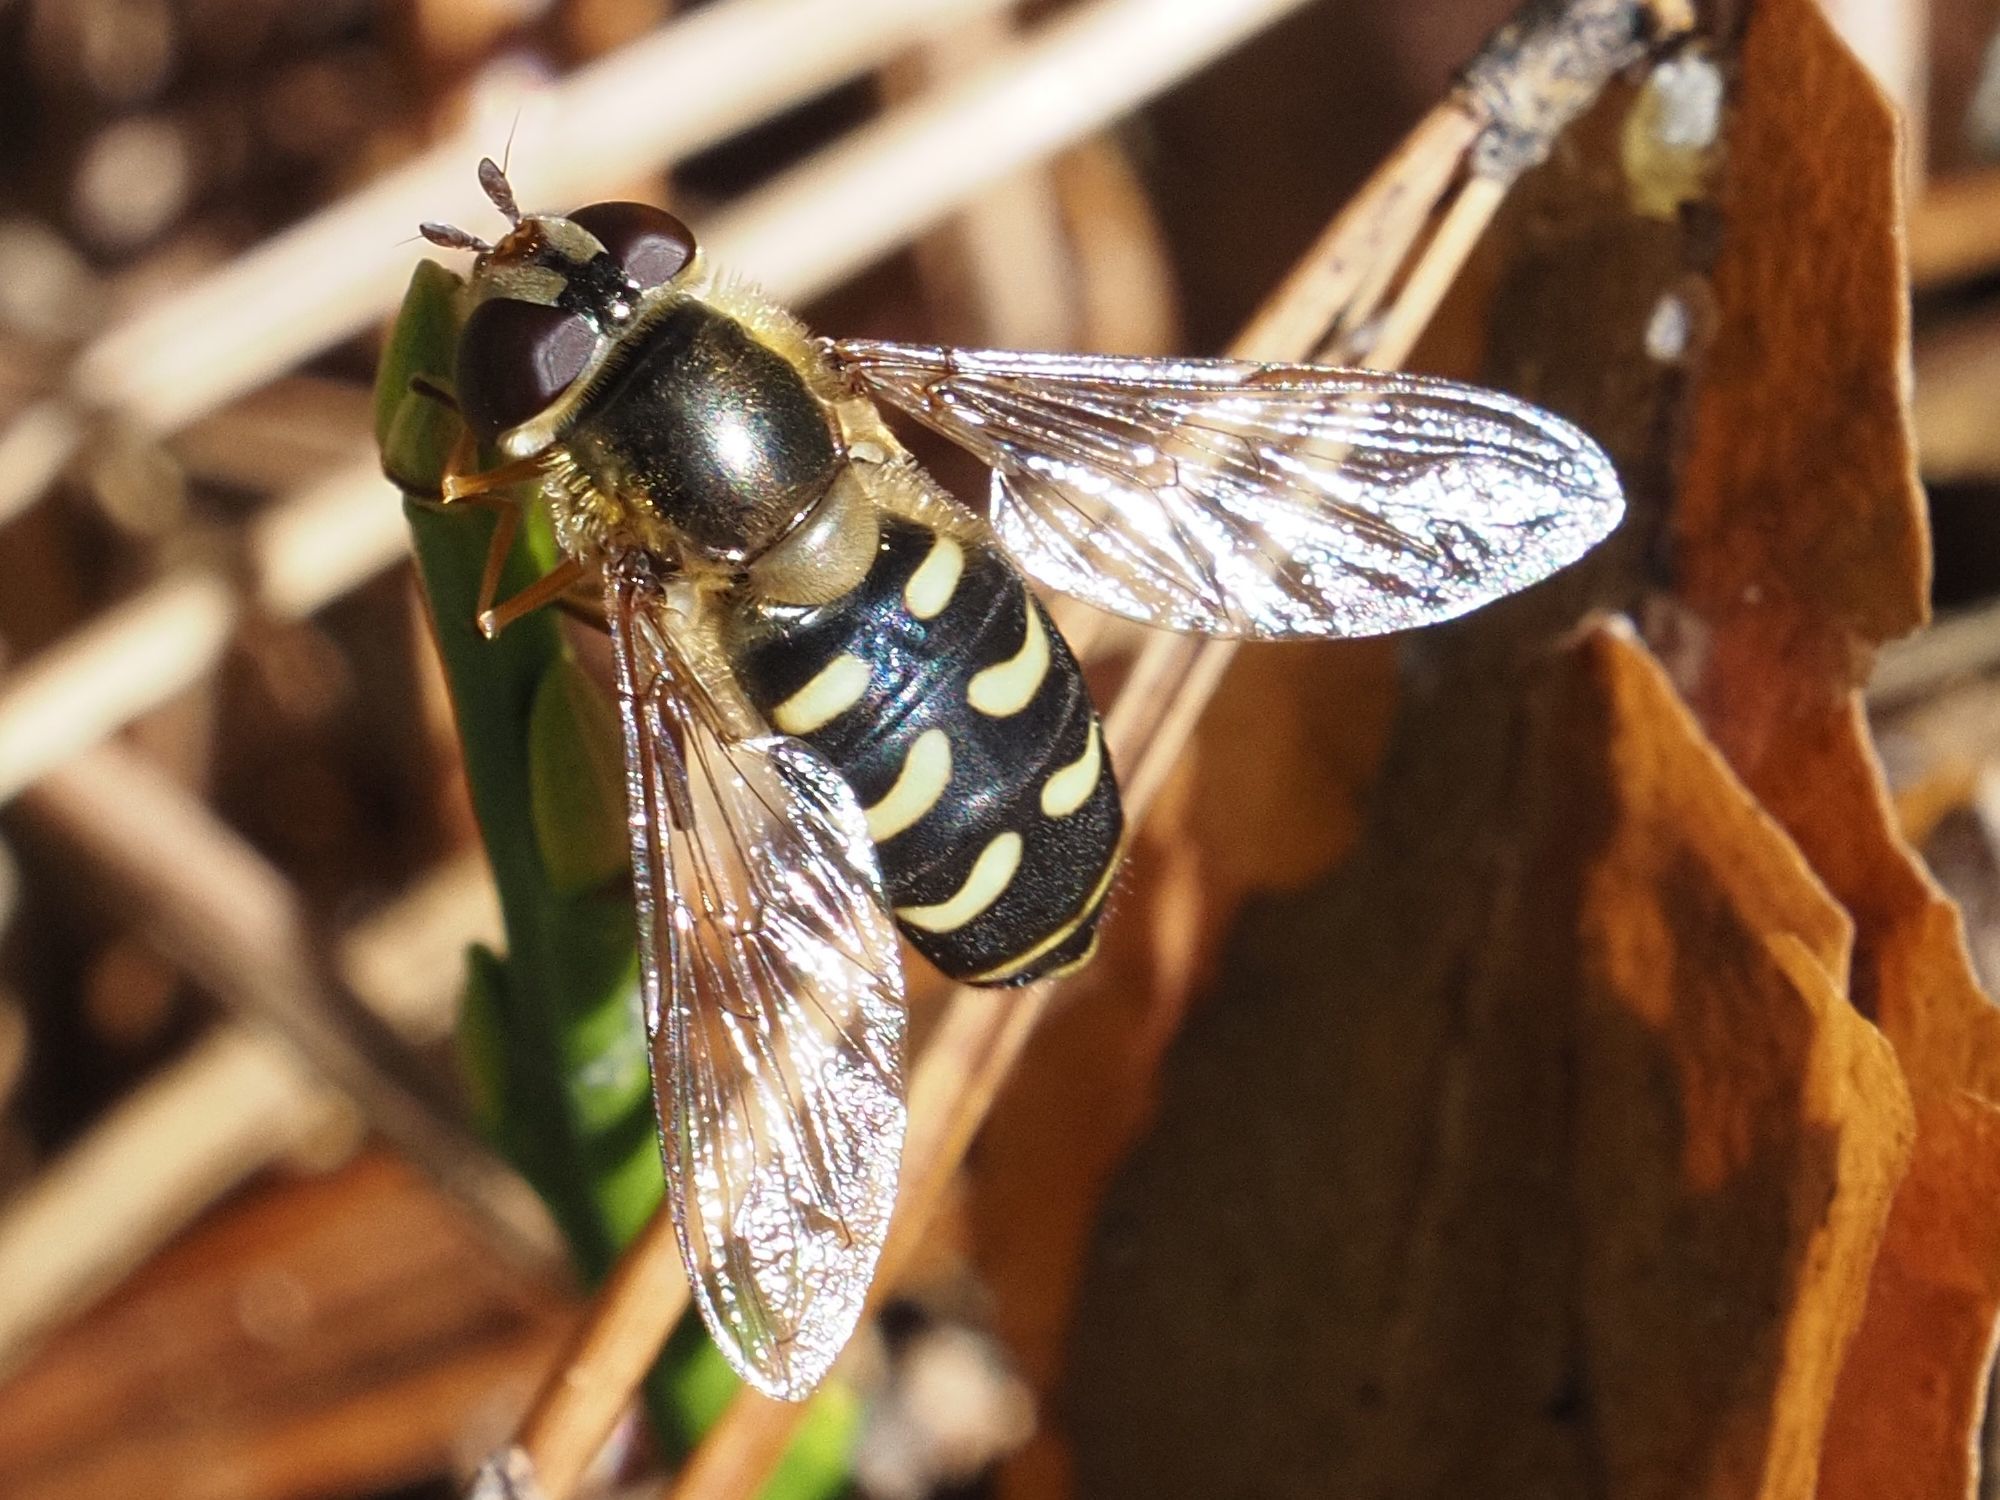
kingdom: Animalia
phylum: Arthropoda
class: Insecta
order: Diptera
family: Syrphidae
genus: Lapposyrphus
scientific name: Lapposyrphus lapponicus
